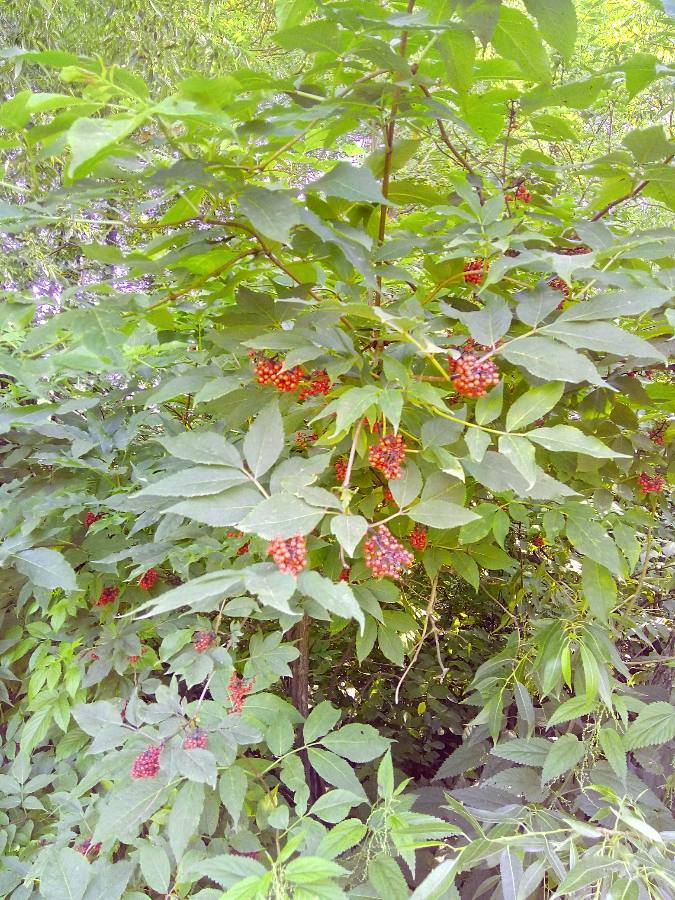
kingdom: Plantae
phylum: Tracheophyta
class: Magnoliopsida
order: Dipsacales
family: Viburnaceae
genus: Sambucus
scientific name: Sambucus racemosa
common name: Red-berried elder
